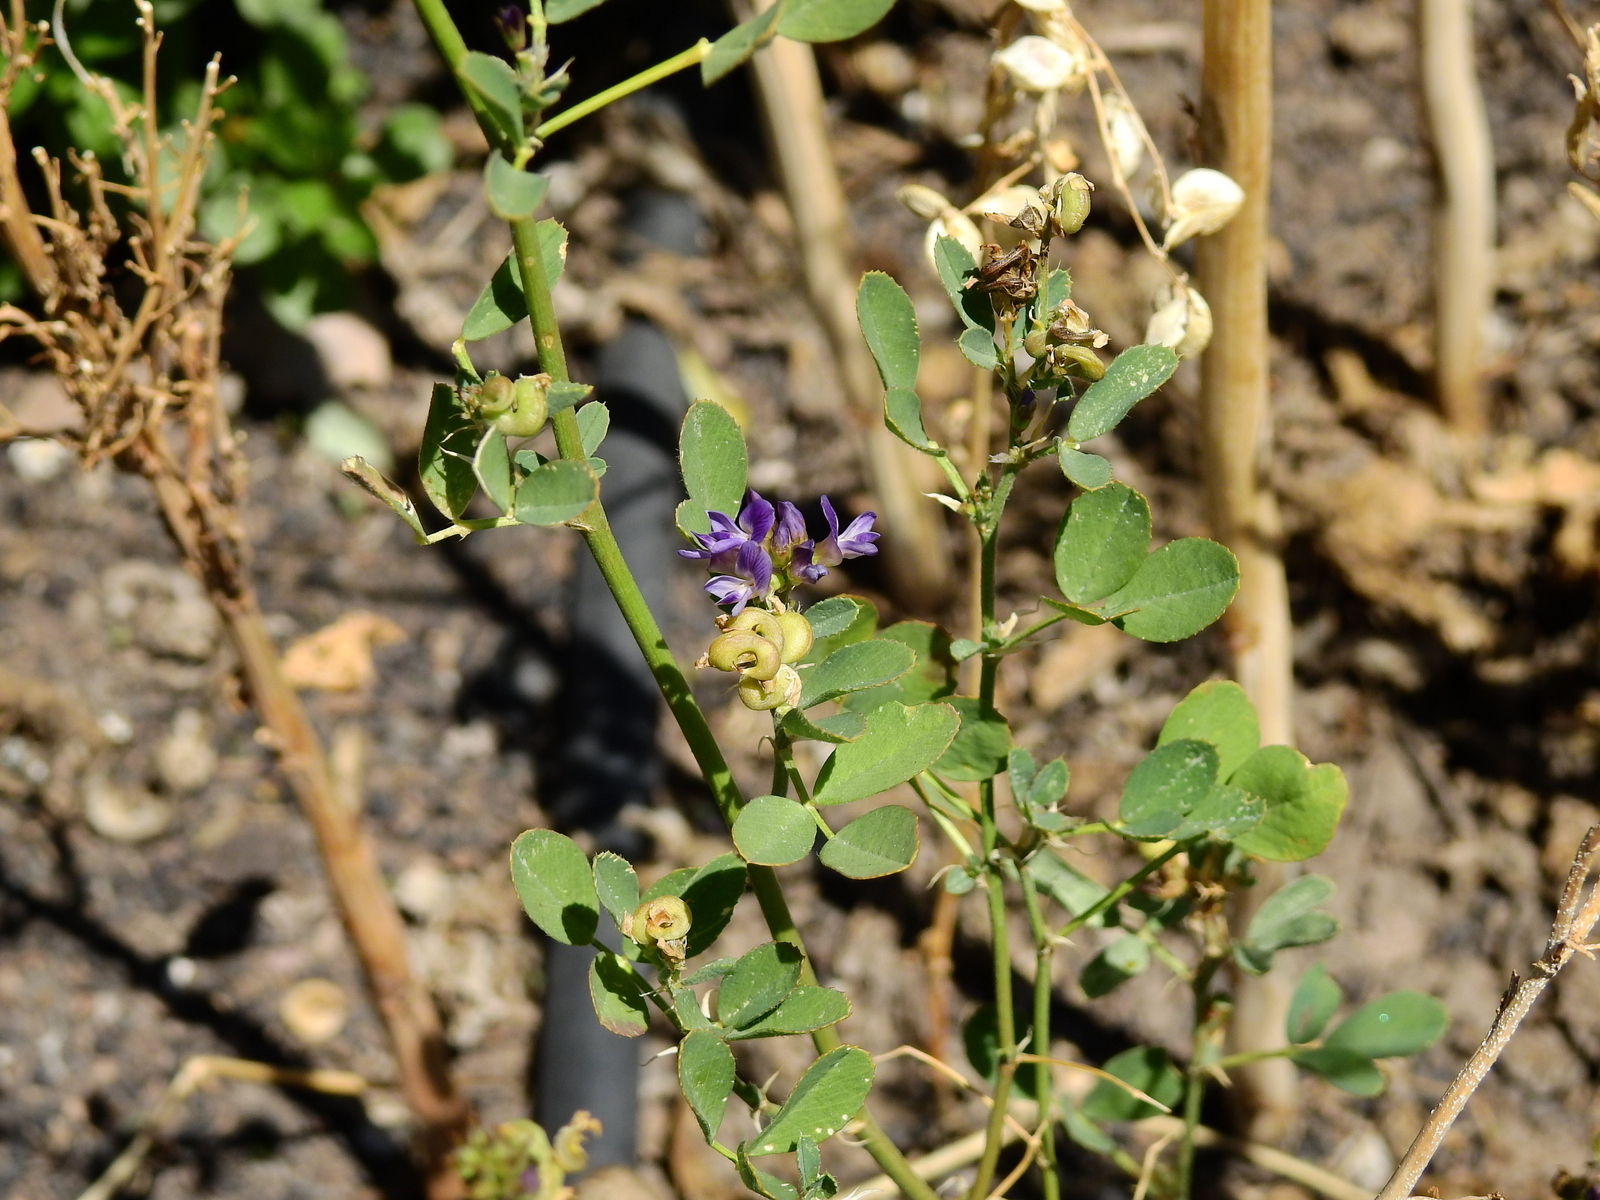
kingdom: Plantae
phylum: Tracheophyta
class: Magnoliopsida
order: Fabales
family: Fabaceae
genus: Medicago
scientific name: Medicago sativa
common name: Alfalfa
